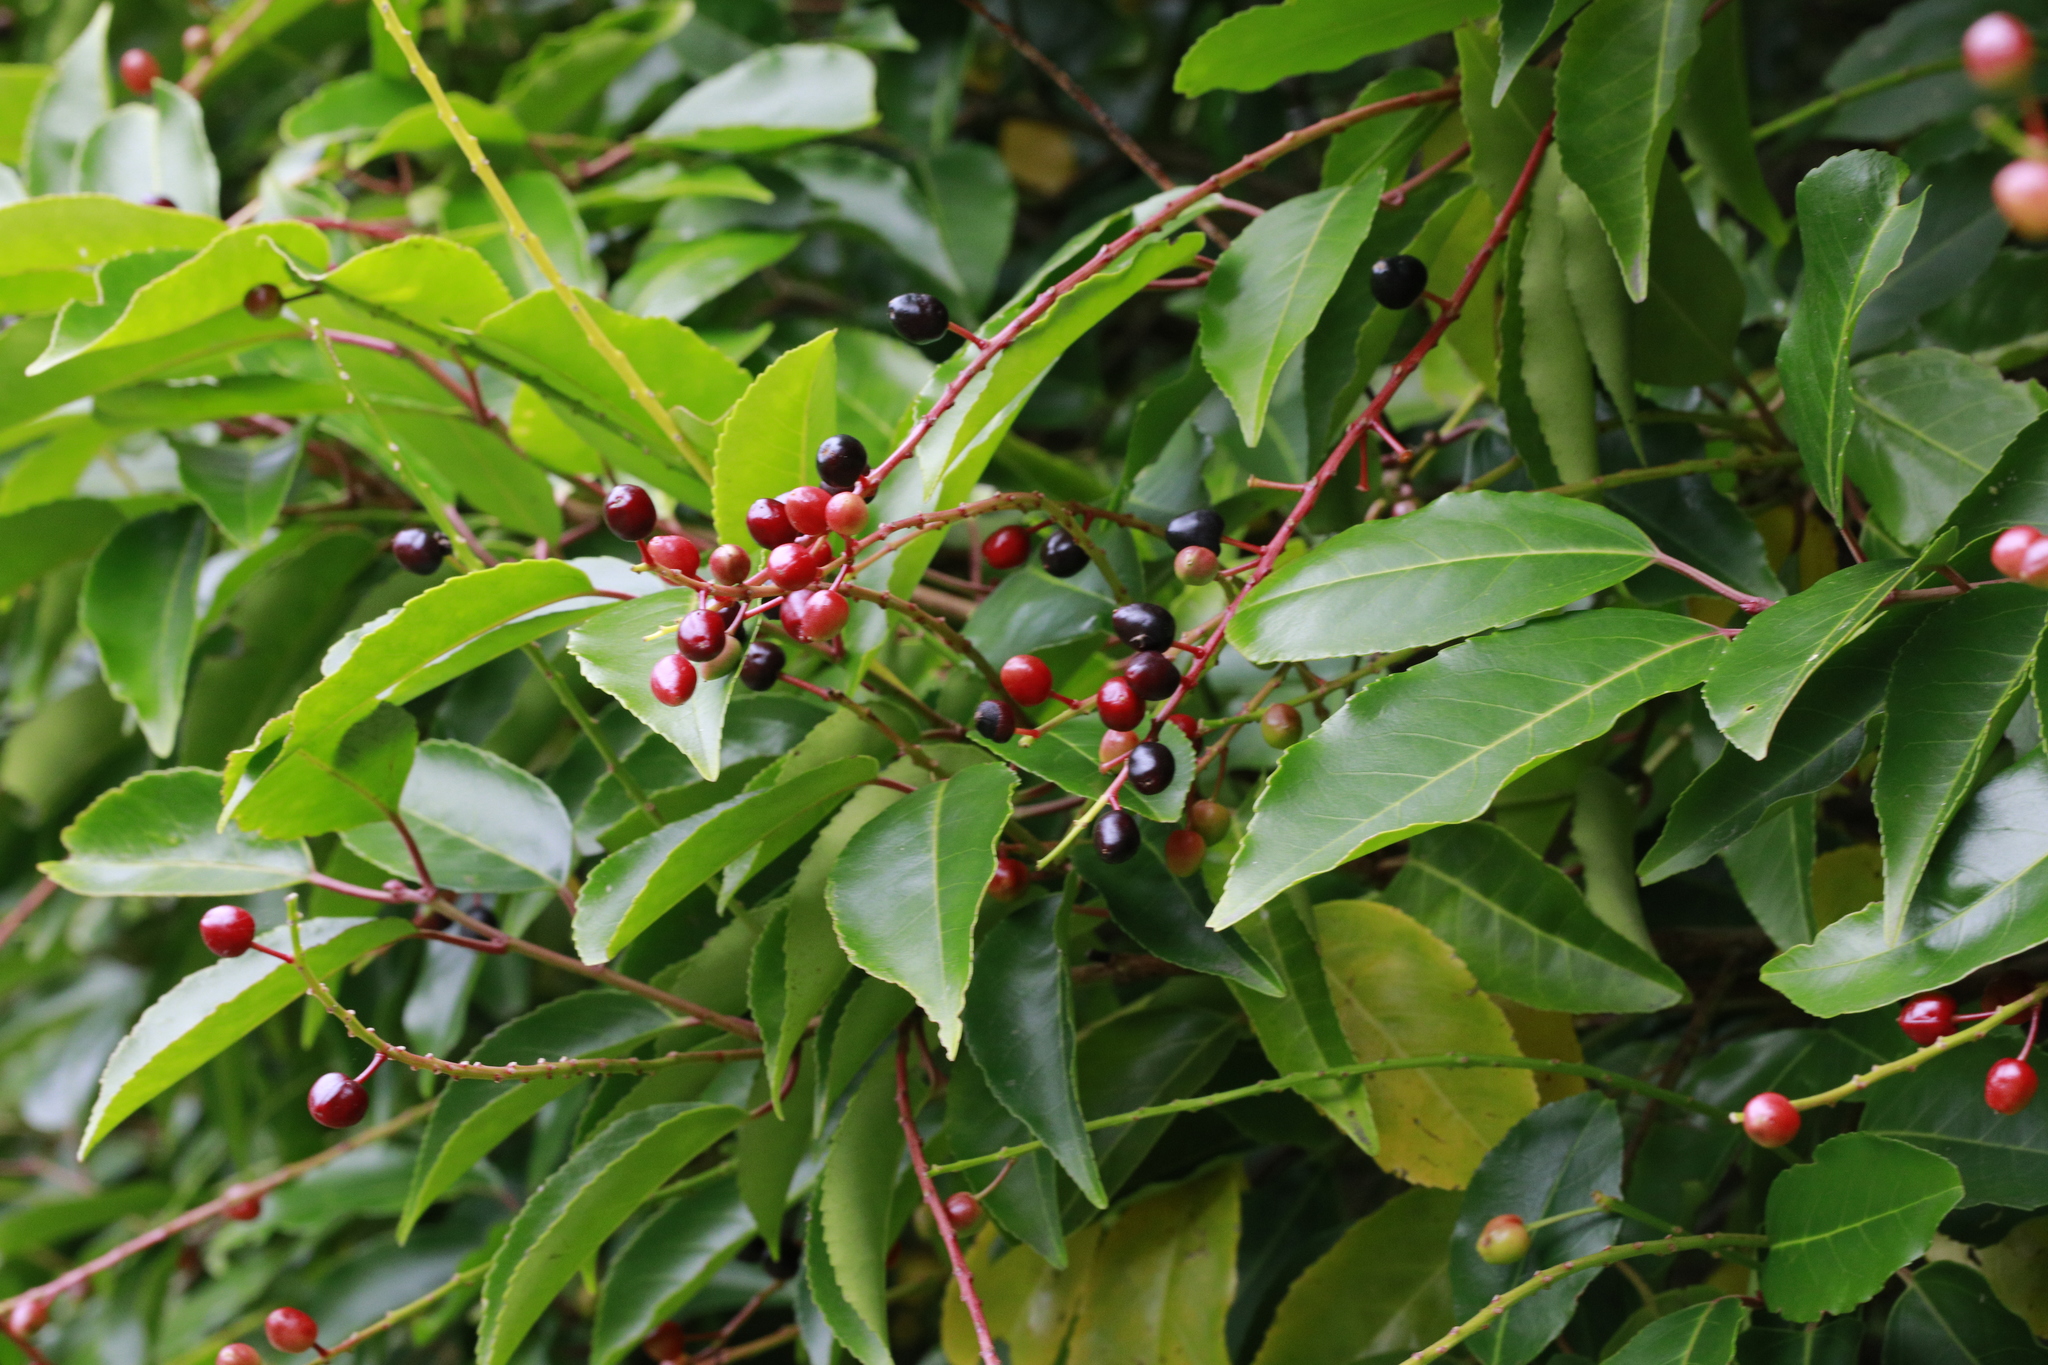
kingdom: Plantae
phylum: Tracheophyta
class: Magnoliopsida
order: Rosales
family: Rosaceae
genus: Prunus
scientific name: Prunus lusitanica
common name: Portugal laurel
